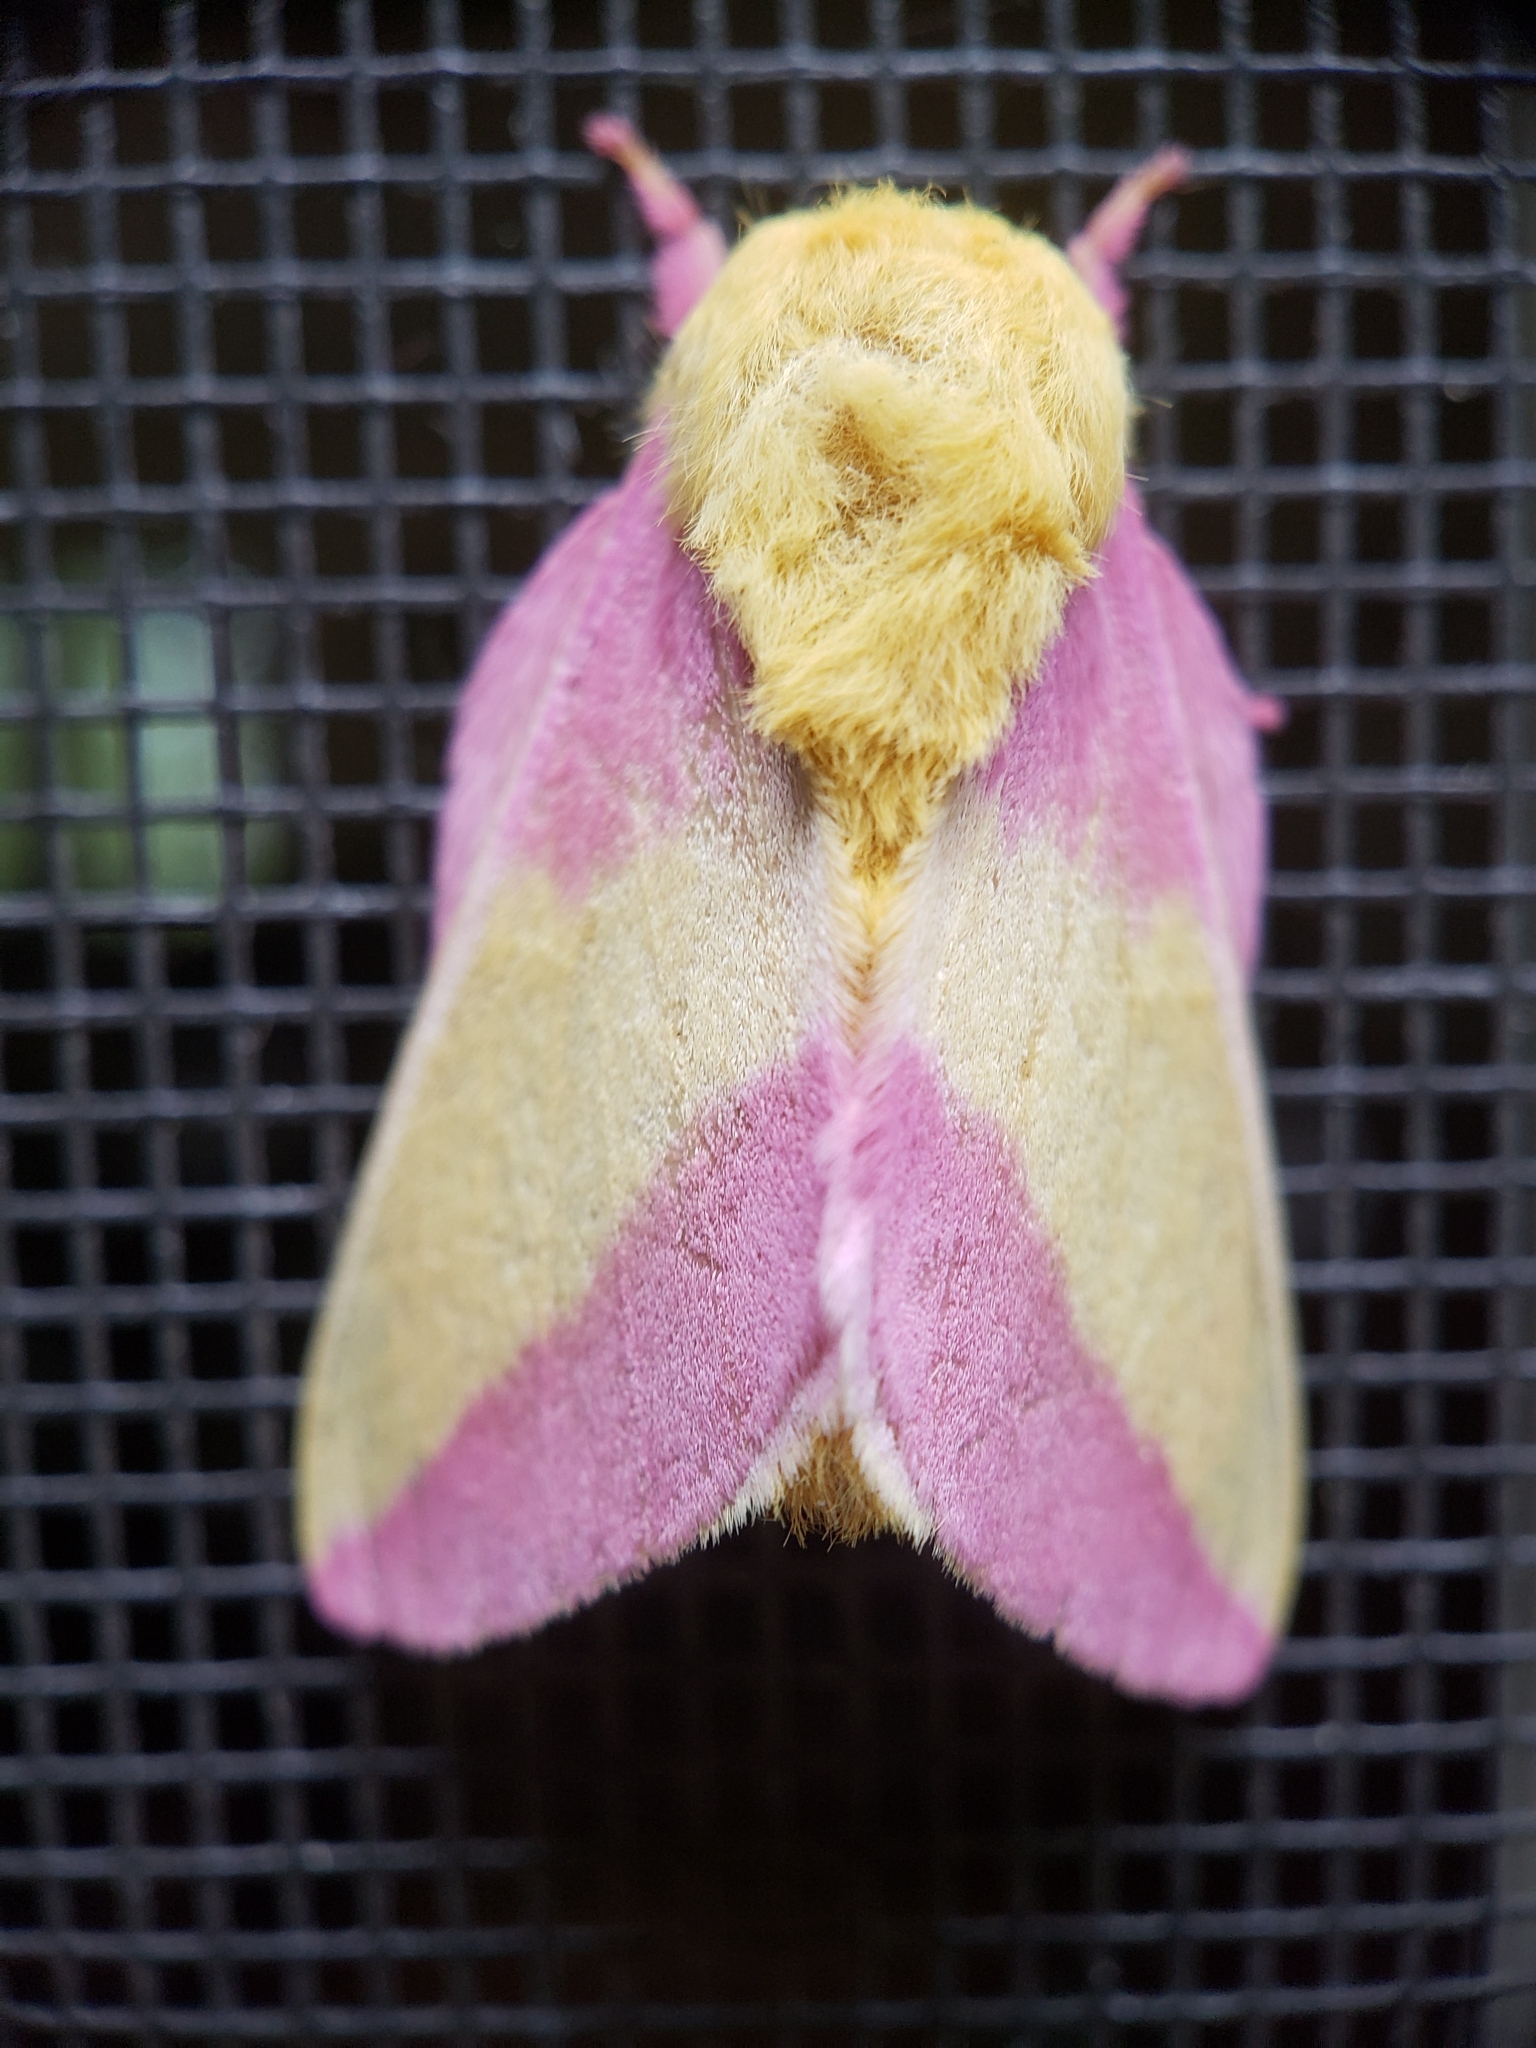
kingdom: Animalia
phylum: Arthropoda
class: Insecta
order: Lepidoptera
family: Saturniidae
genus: Dryocampa
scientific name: Dryocampa rubicunda
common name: Rosy maple moth
